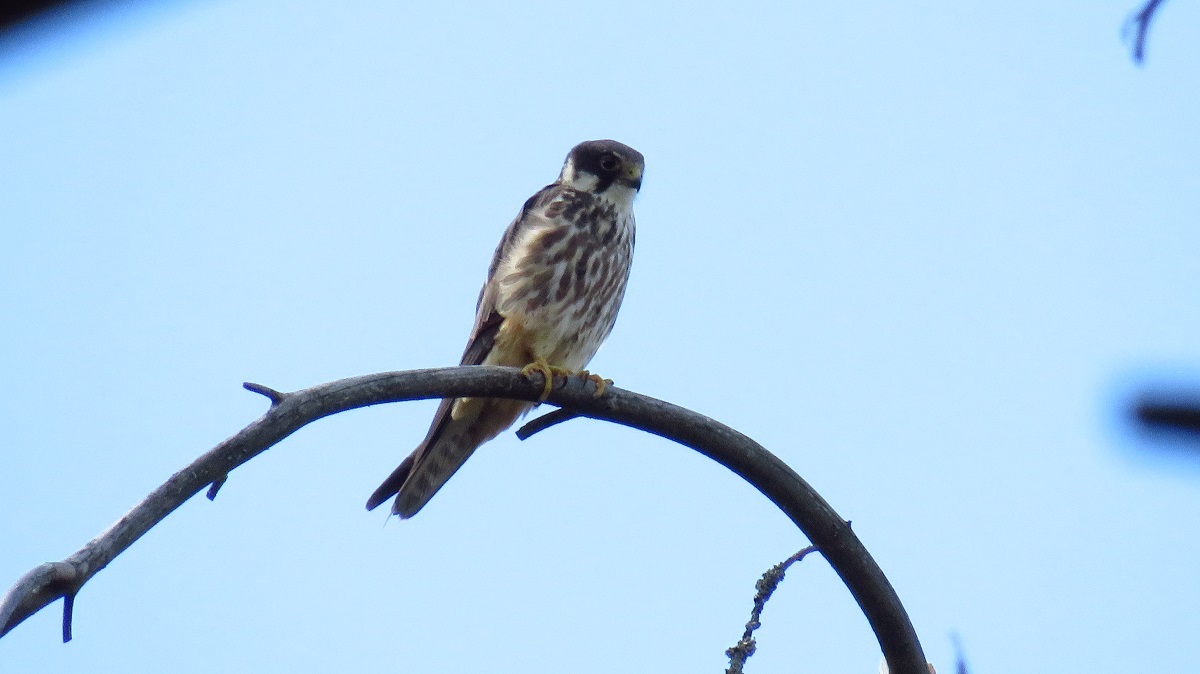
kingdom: Animalia
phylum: Chordata
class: Aves
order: Falconiformes
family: Falconidae
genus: Falco
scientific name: Falco subbuteo
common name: Eurasian hobby
